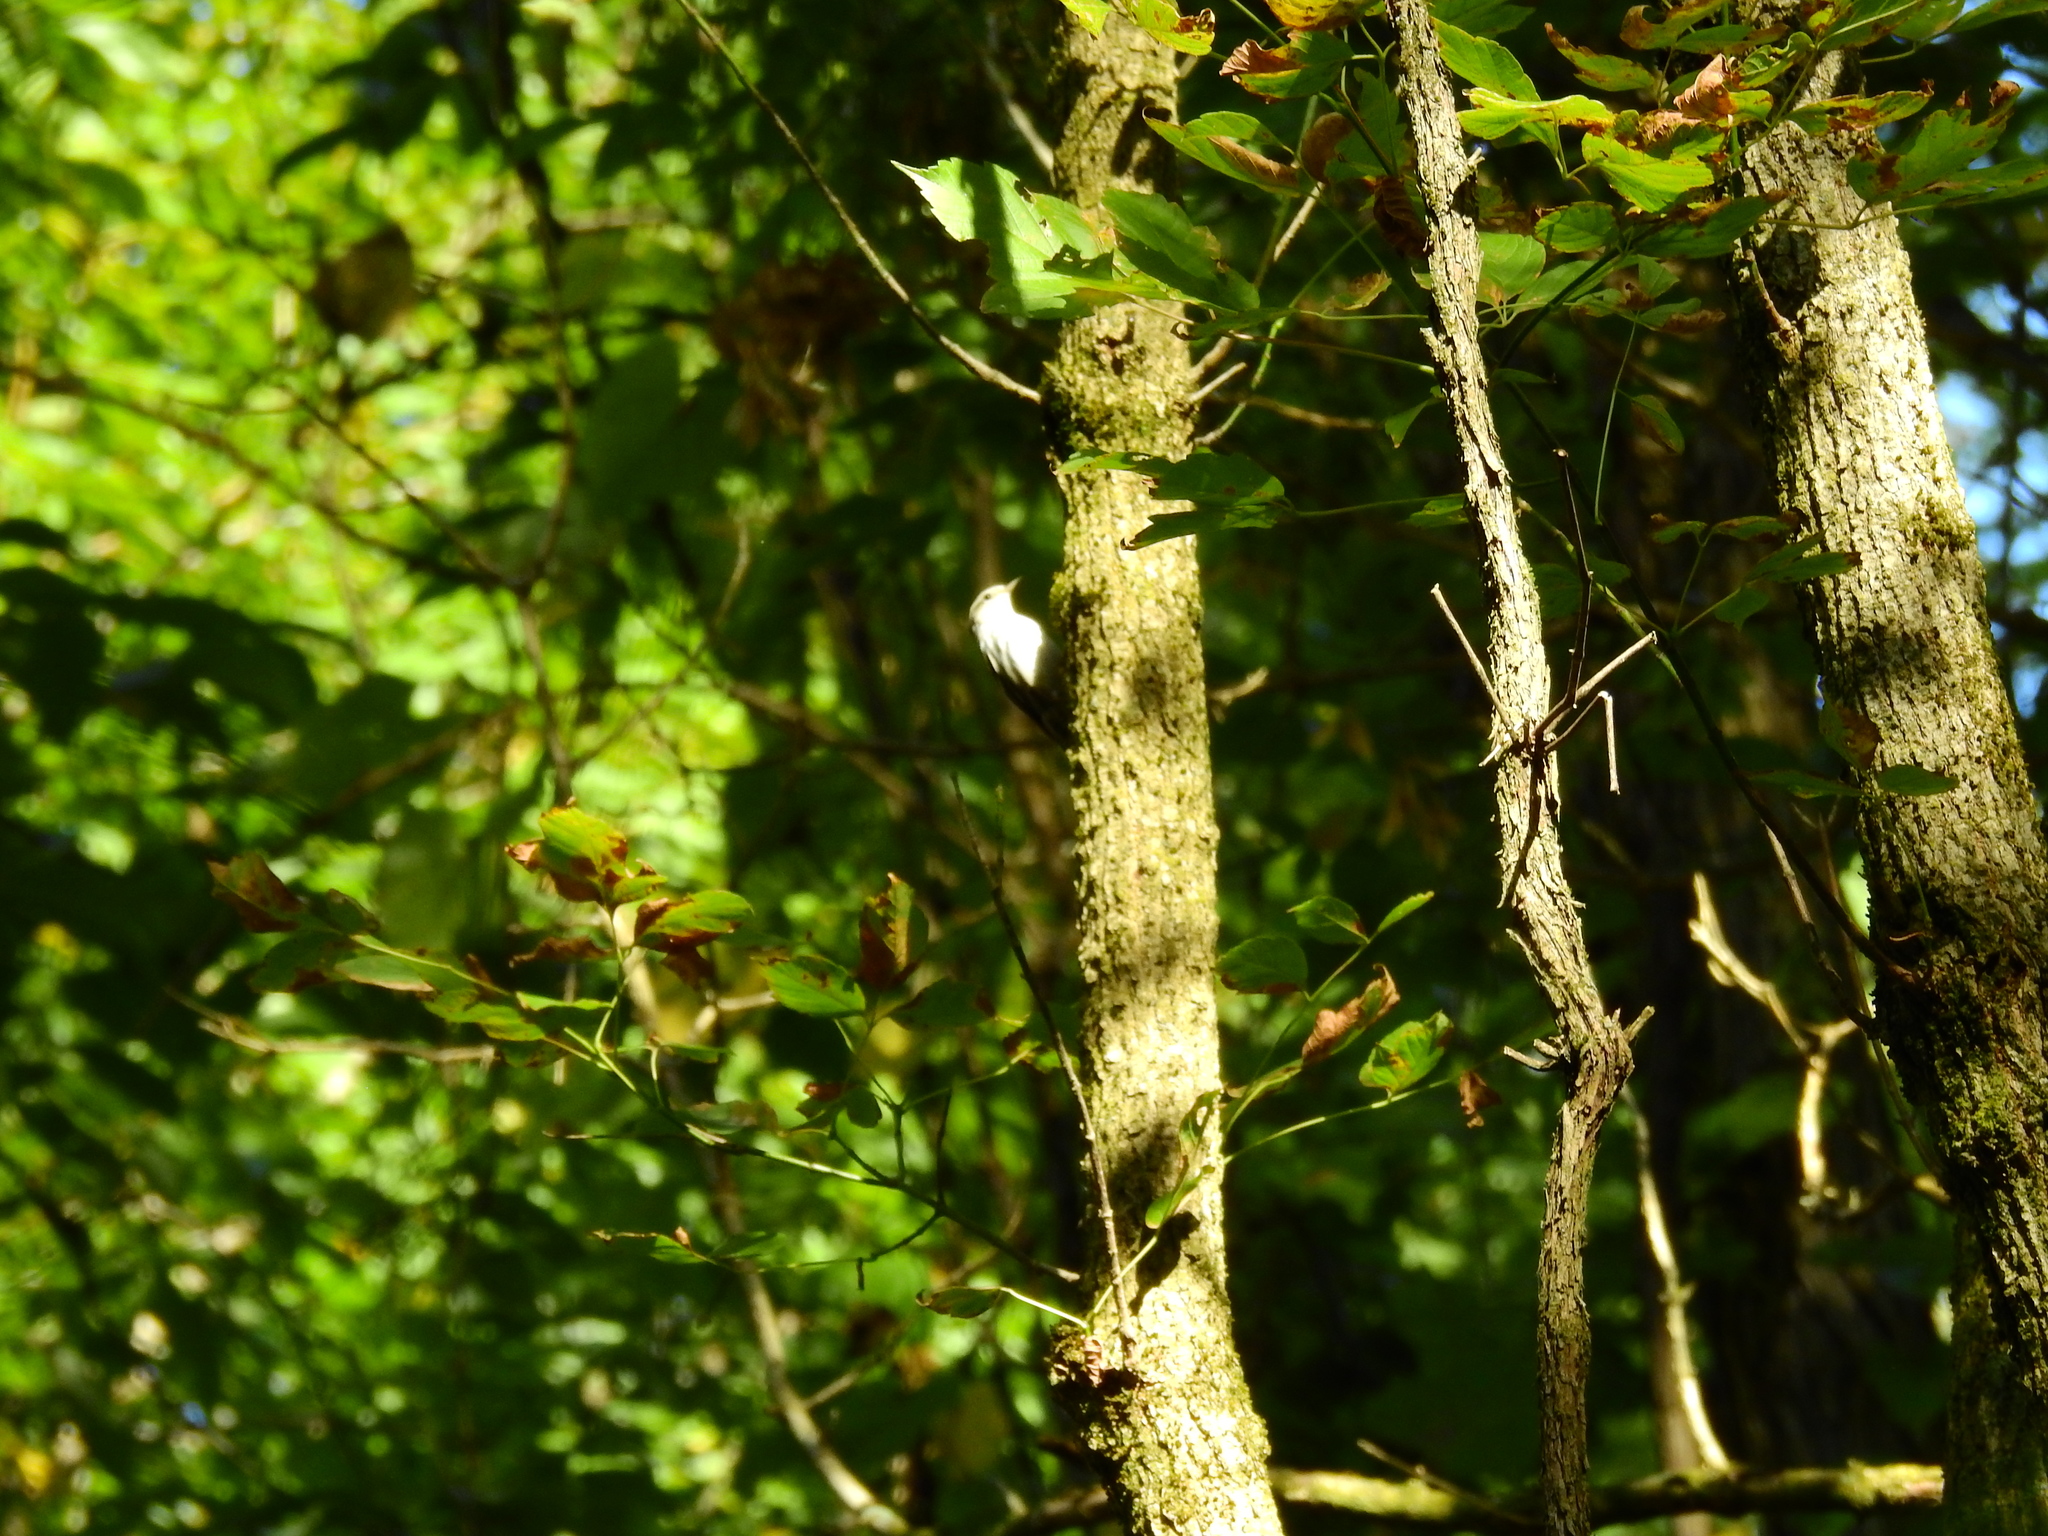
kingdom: Animalia
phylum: Chordata
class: Aves
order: Passeriformes
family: Parulidae
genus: Mniotilta
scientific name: Mniotilta varia
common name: Black-and-white warbler
